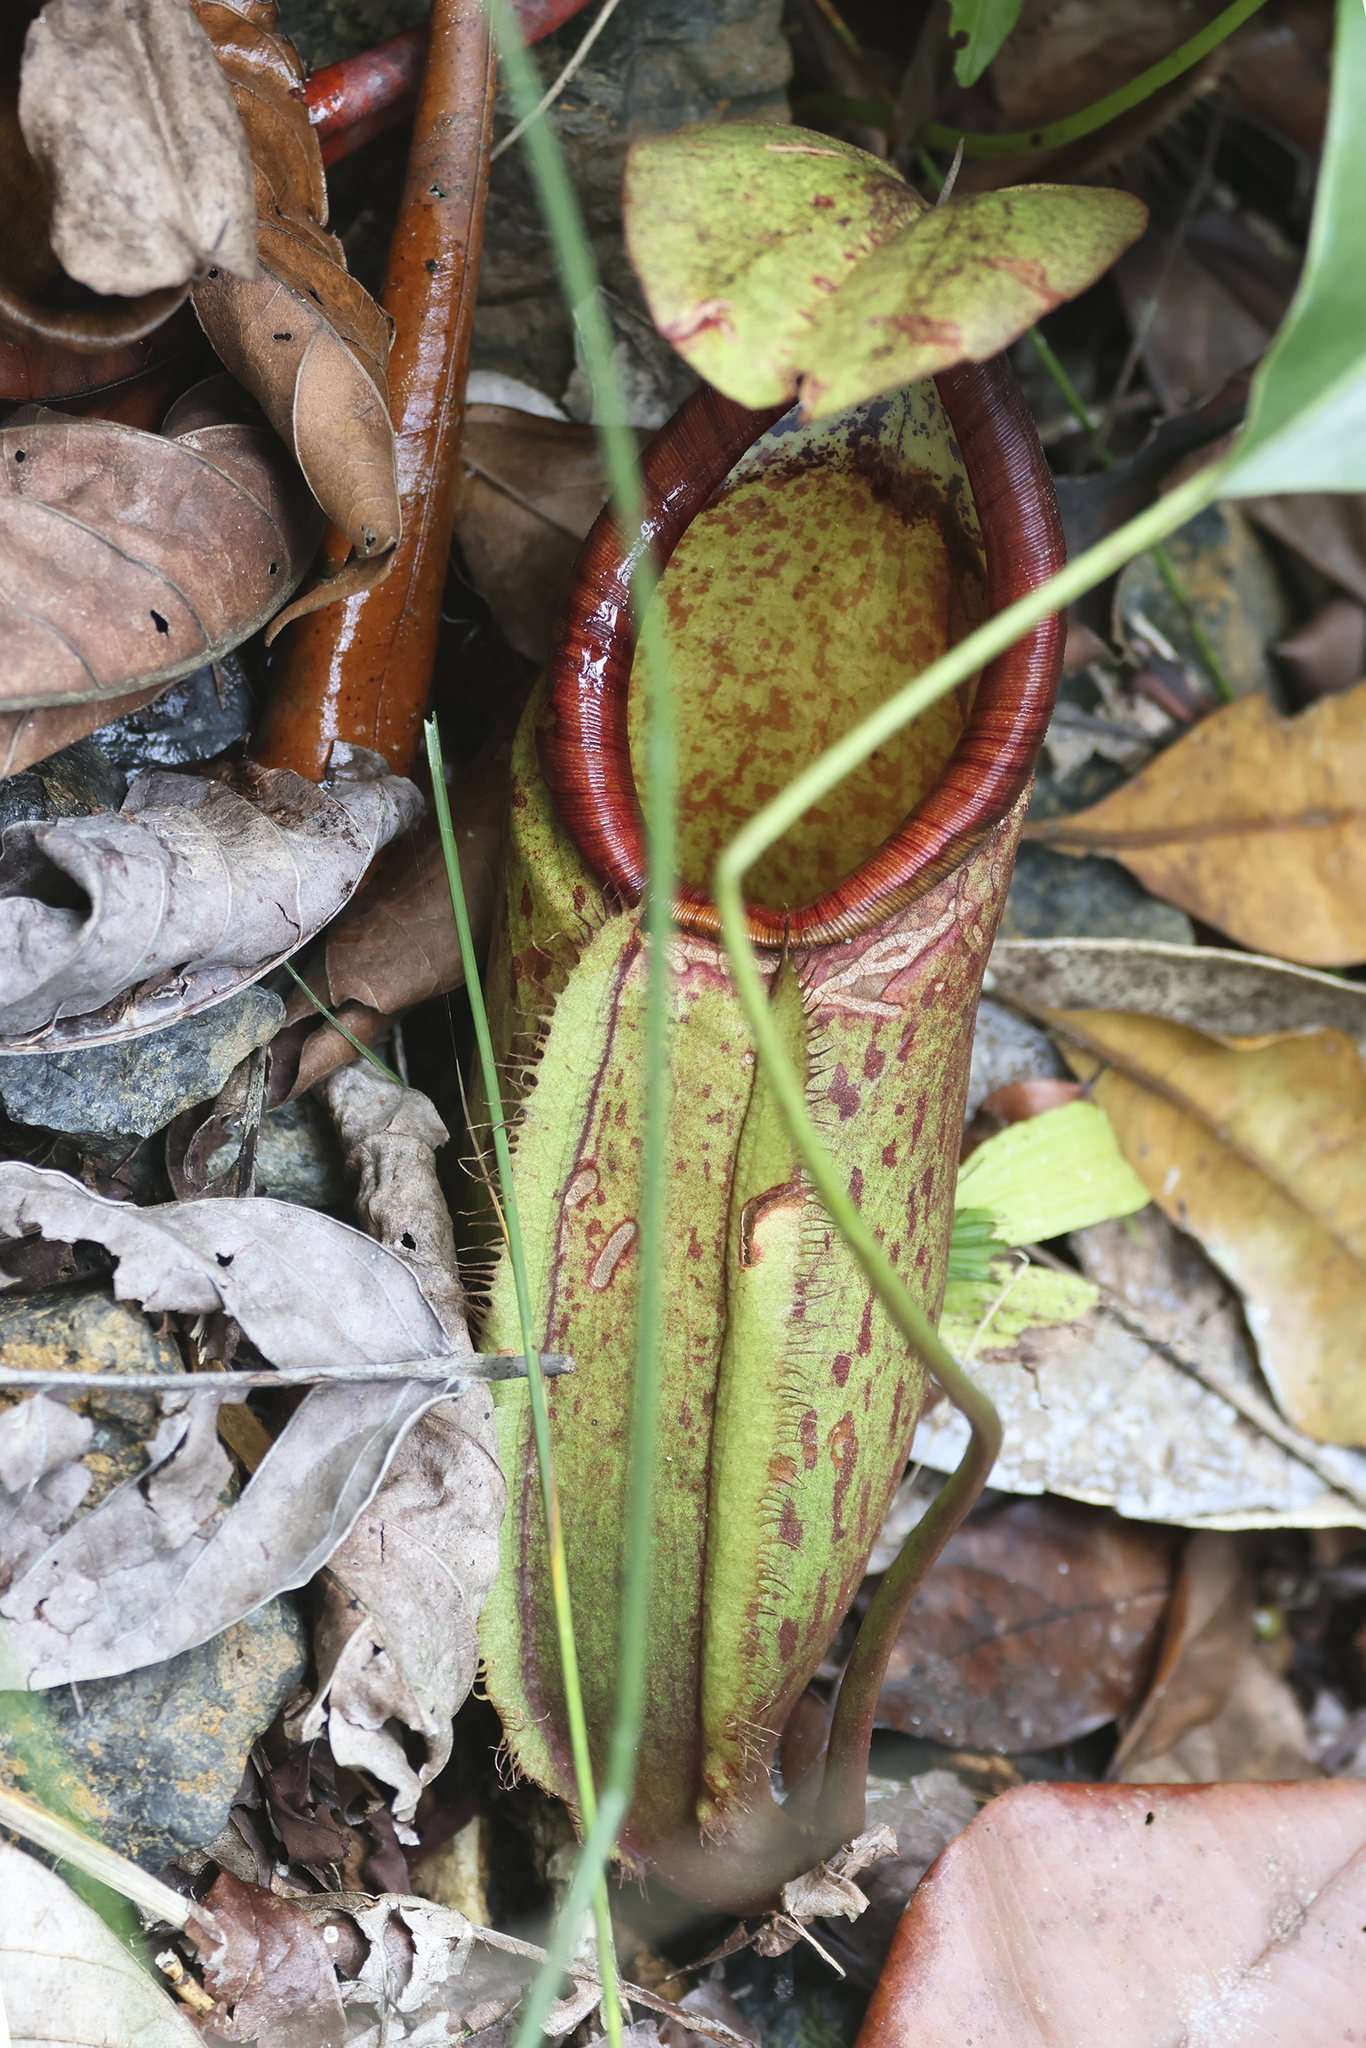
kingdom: Plantae
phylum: Tracheophyta
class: Magnoliopsida
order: Caryophyllales
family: Nepenthaceae
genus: Nepenthes
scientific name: Nepenthes macrovulgaris
